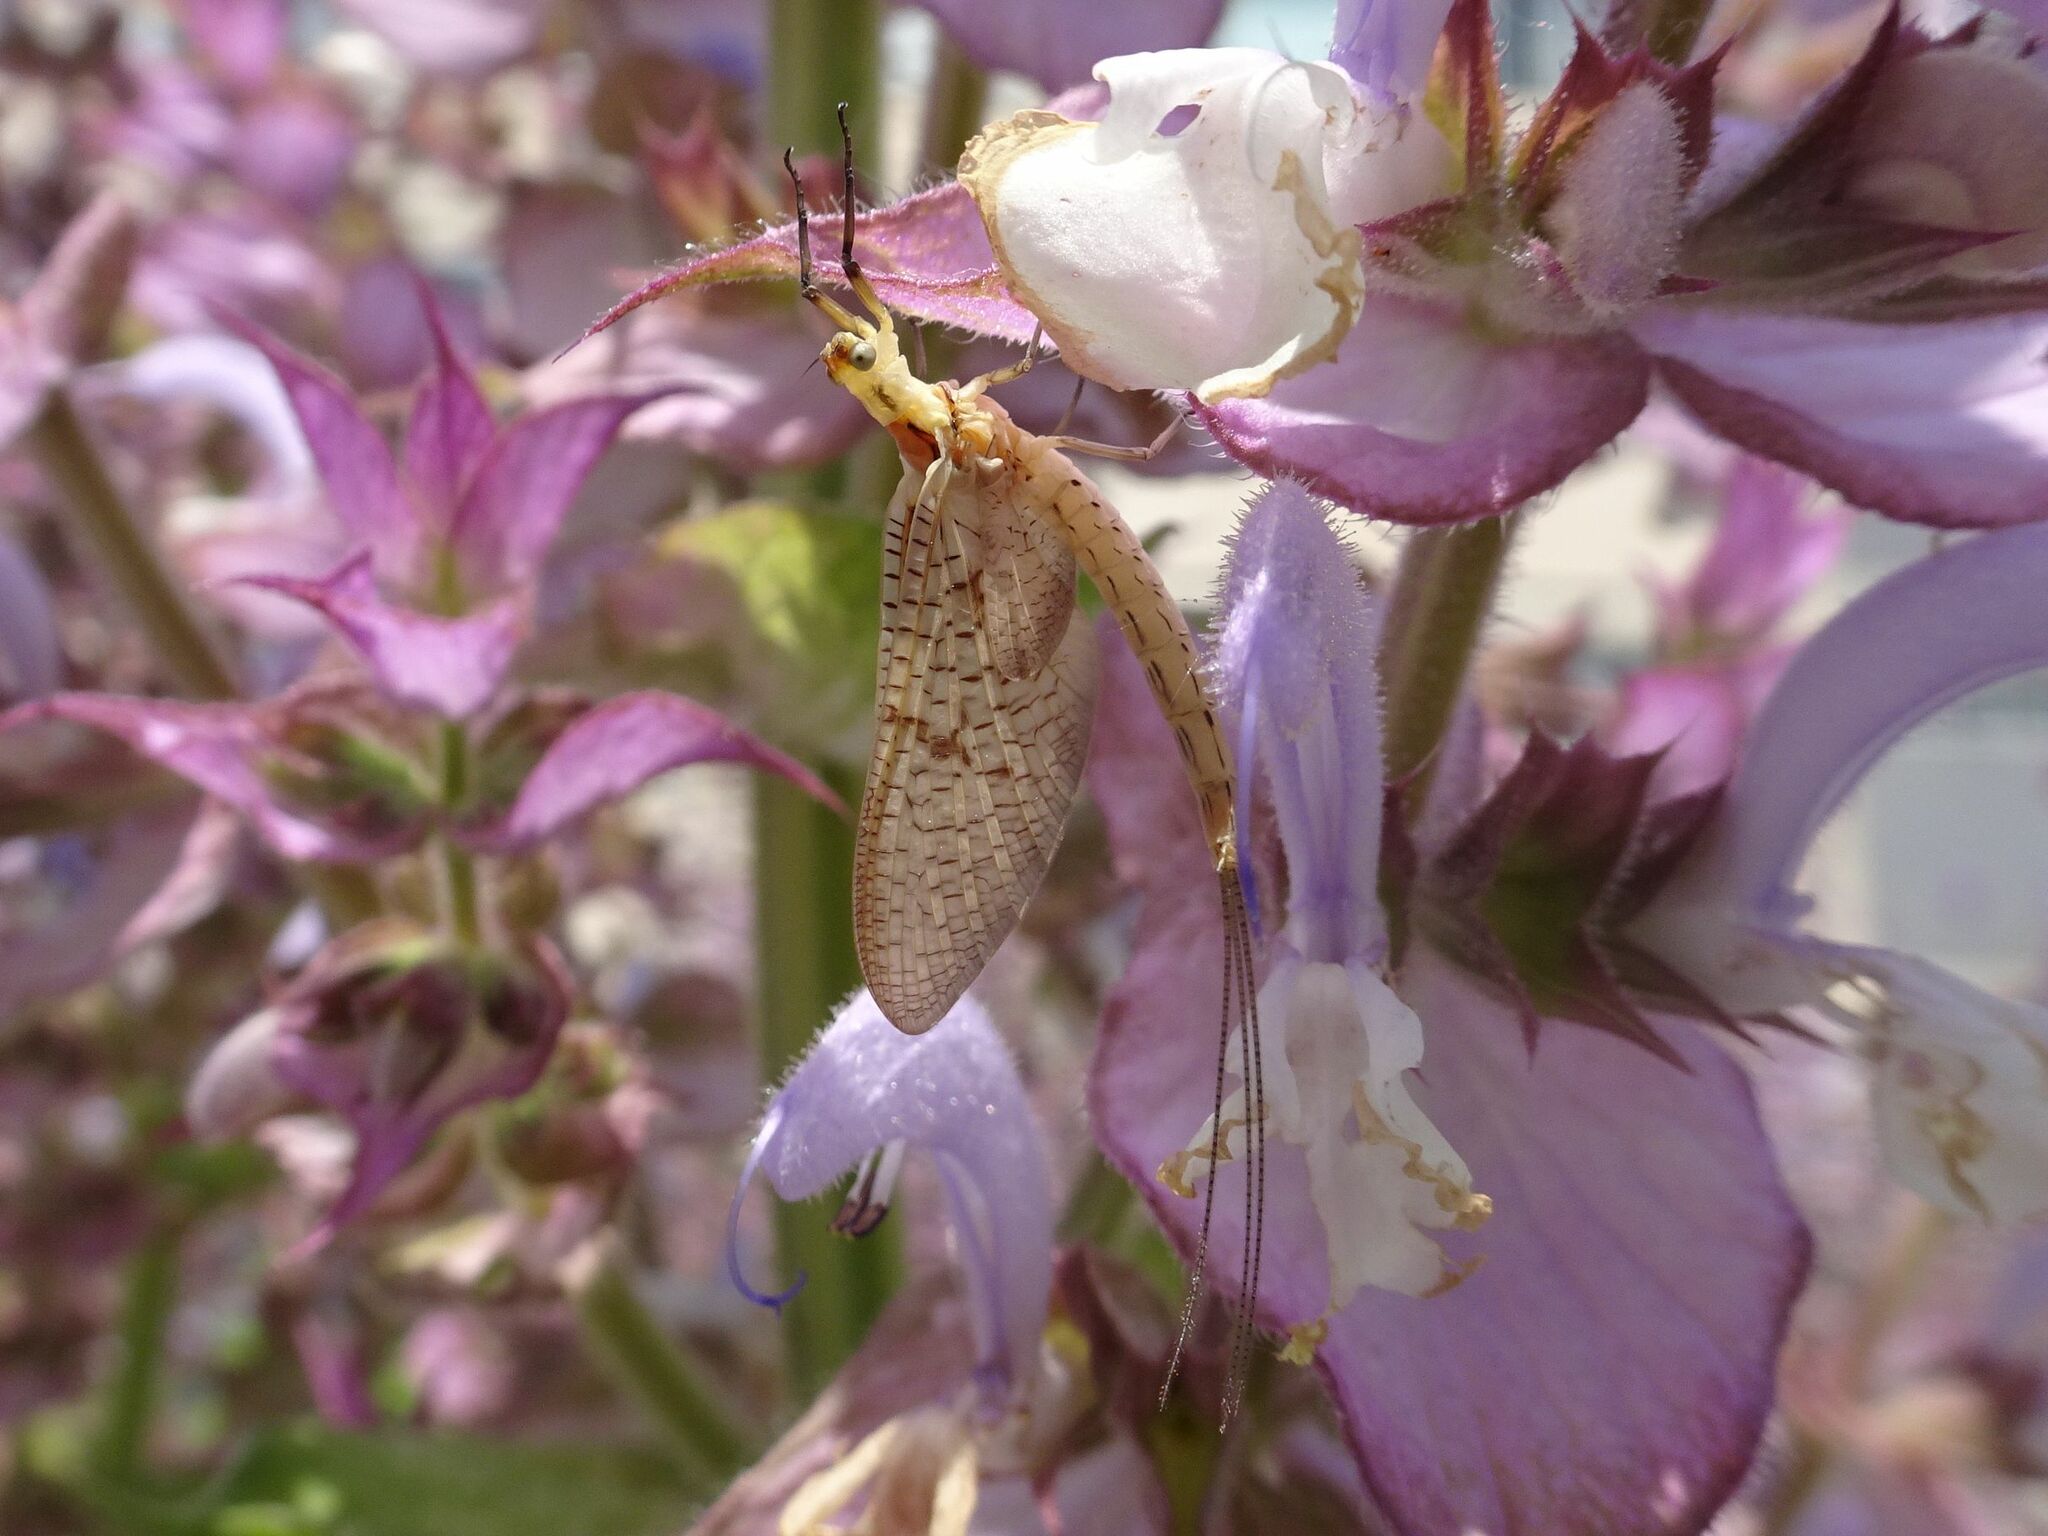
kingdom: Animalia
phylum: Arthropoda
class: Insecta
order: Ephemeroptera
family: Ephemeridae
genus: Ephemera
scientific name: Ephemera glaucops
